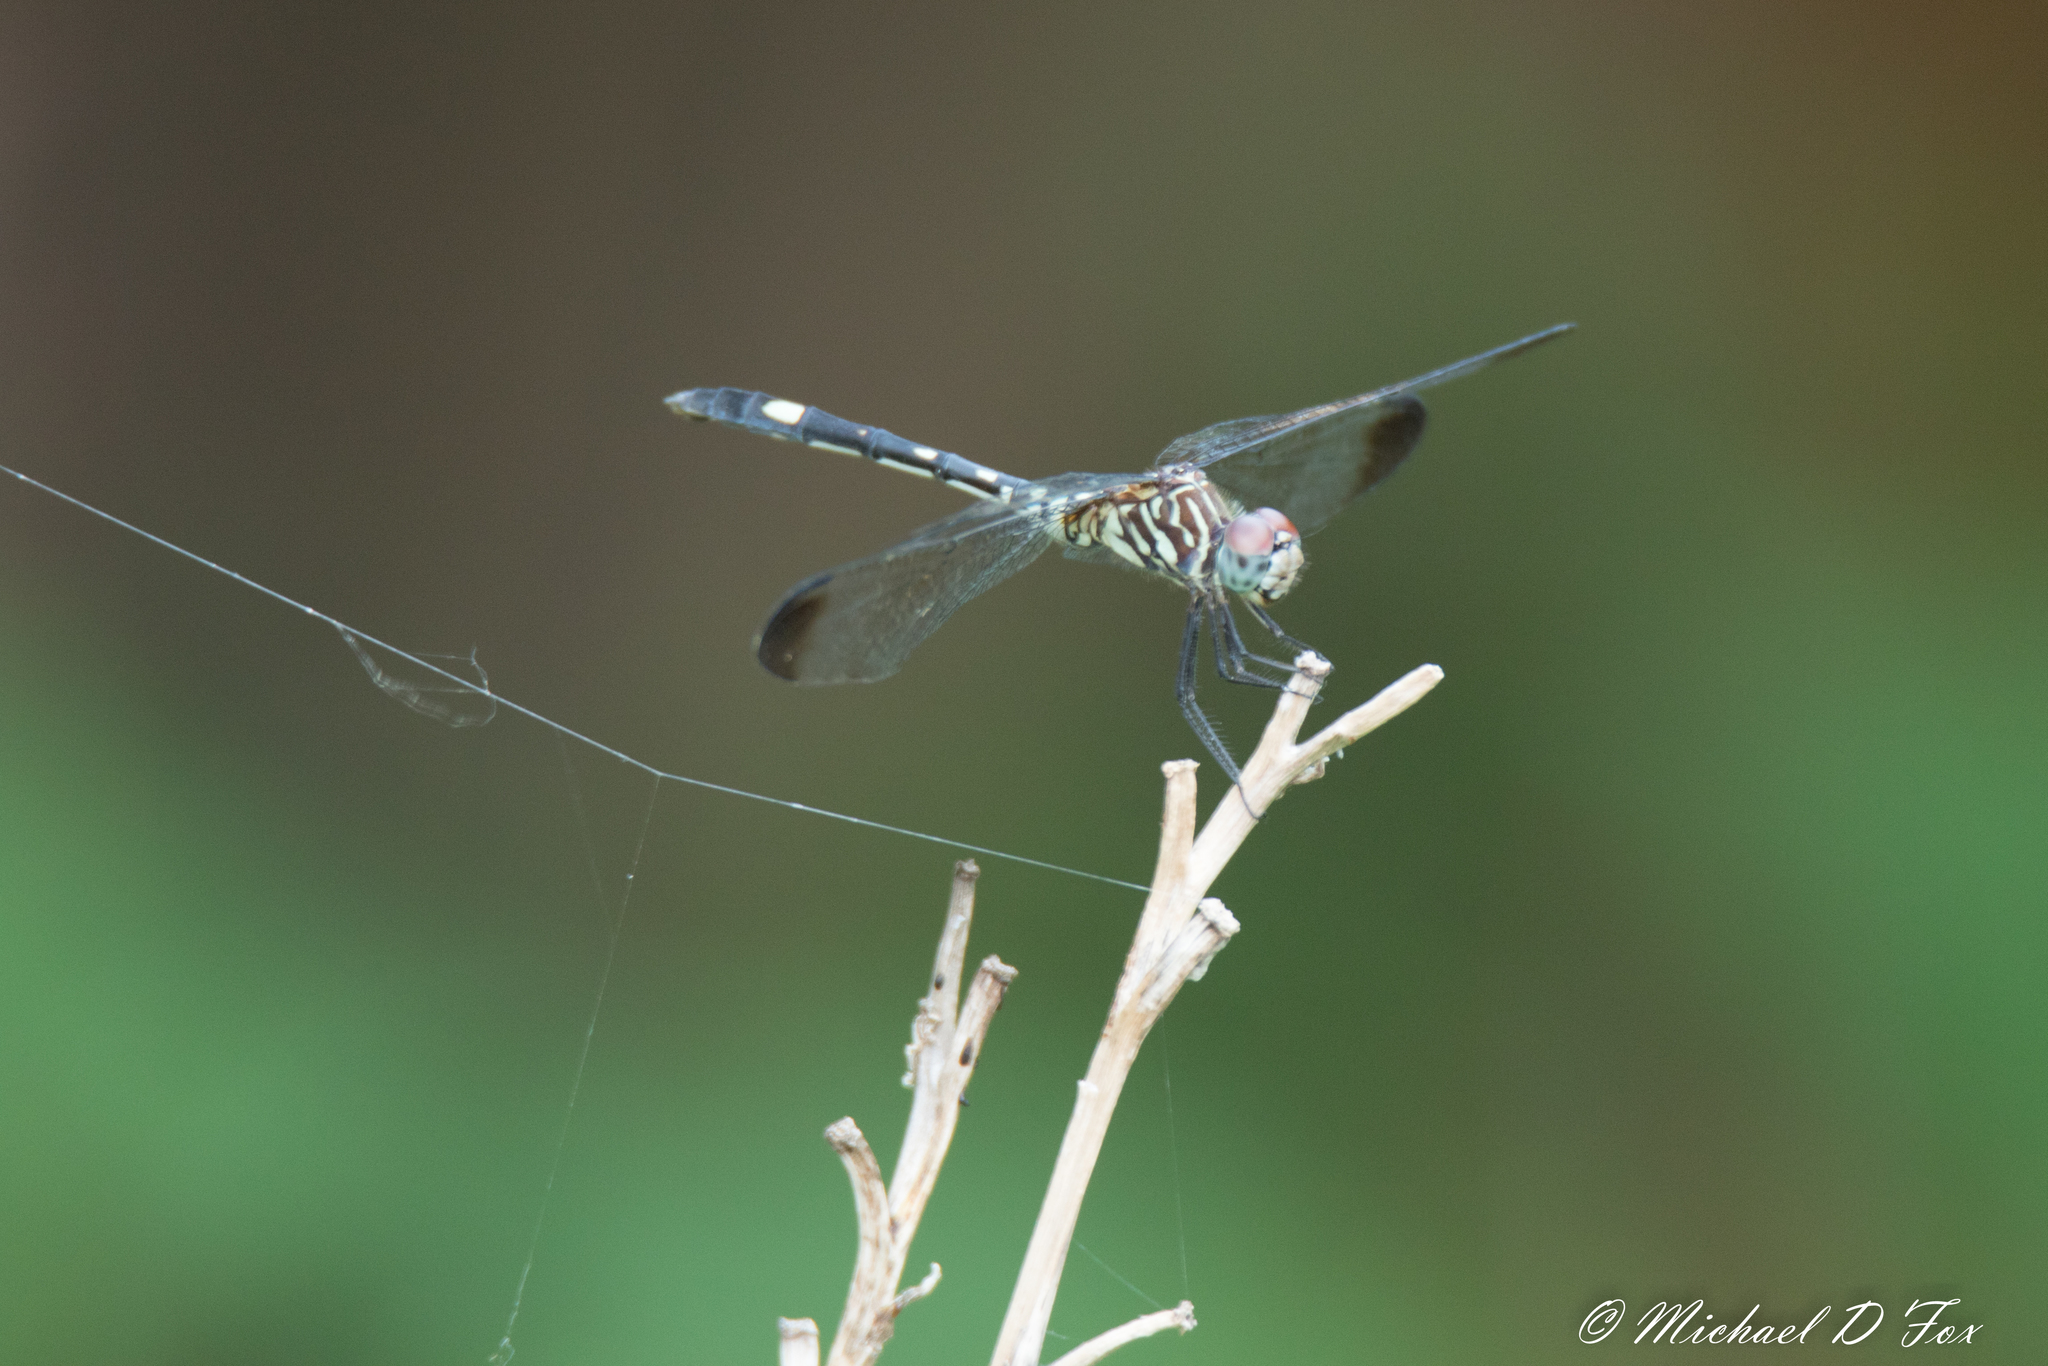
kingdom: Animalia
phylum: Arthropoda
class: Insecta
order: Odonata
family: Libellulidae
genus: Dythemis
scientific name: Dythemis velox
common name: Swift setwing
